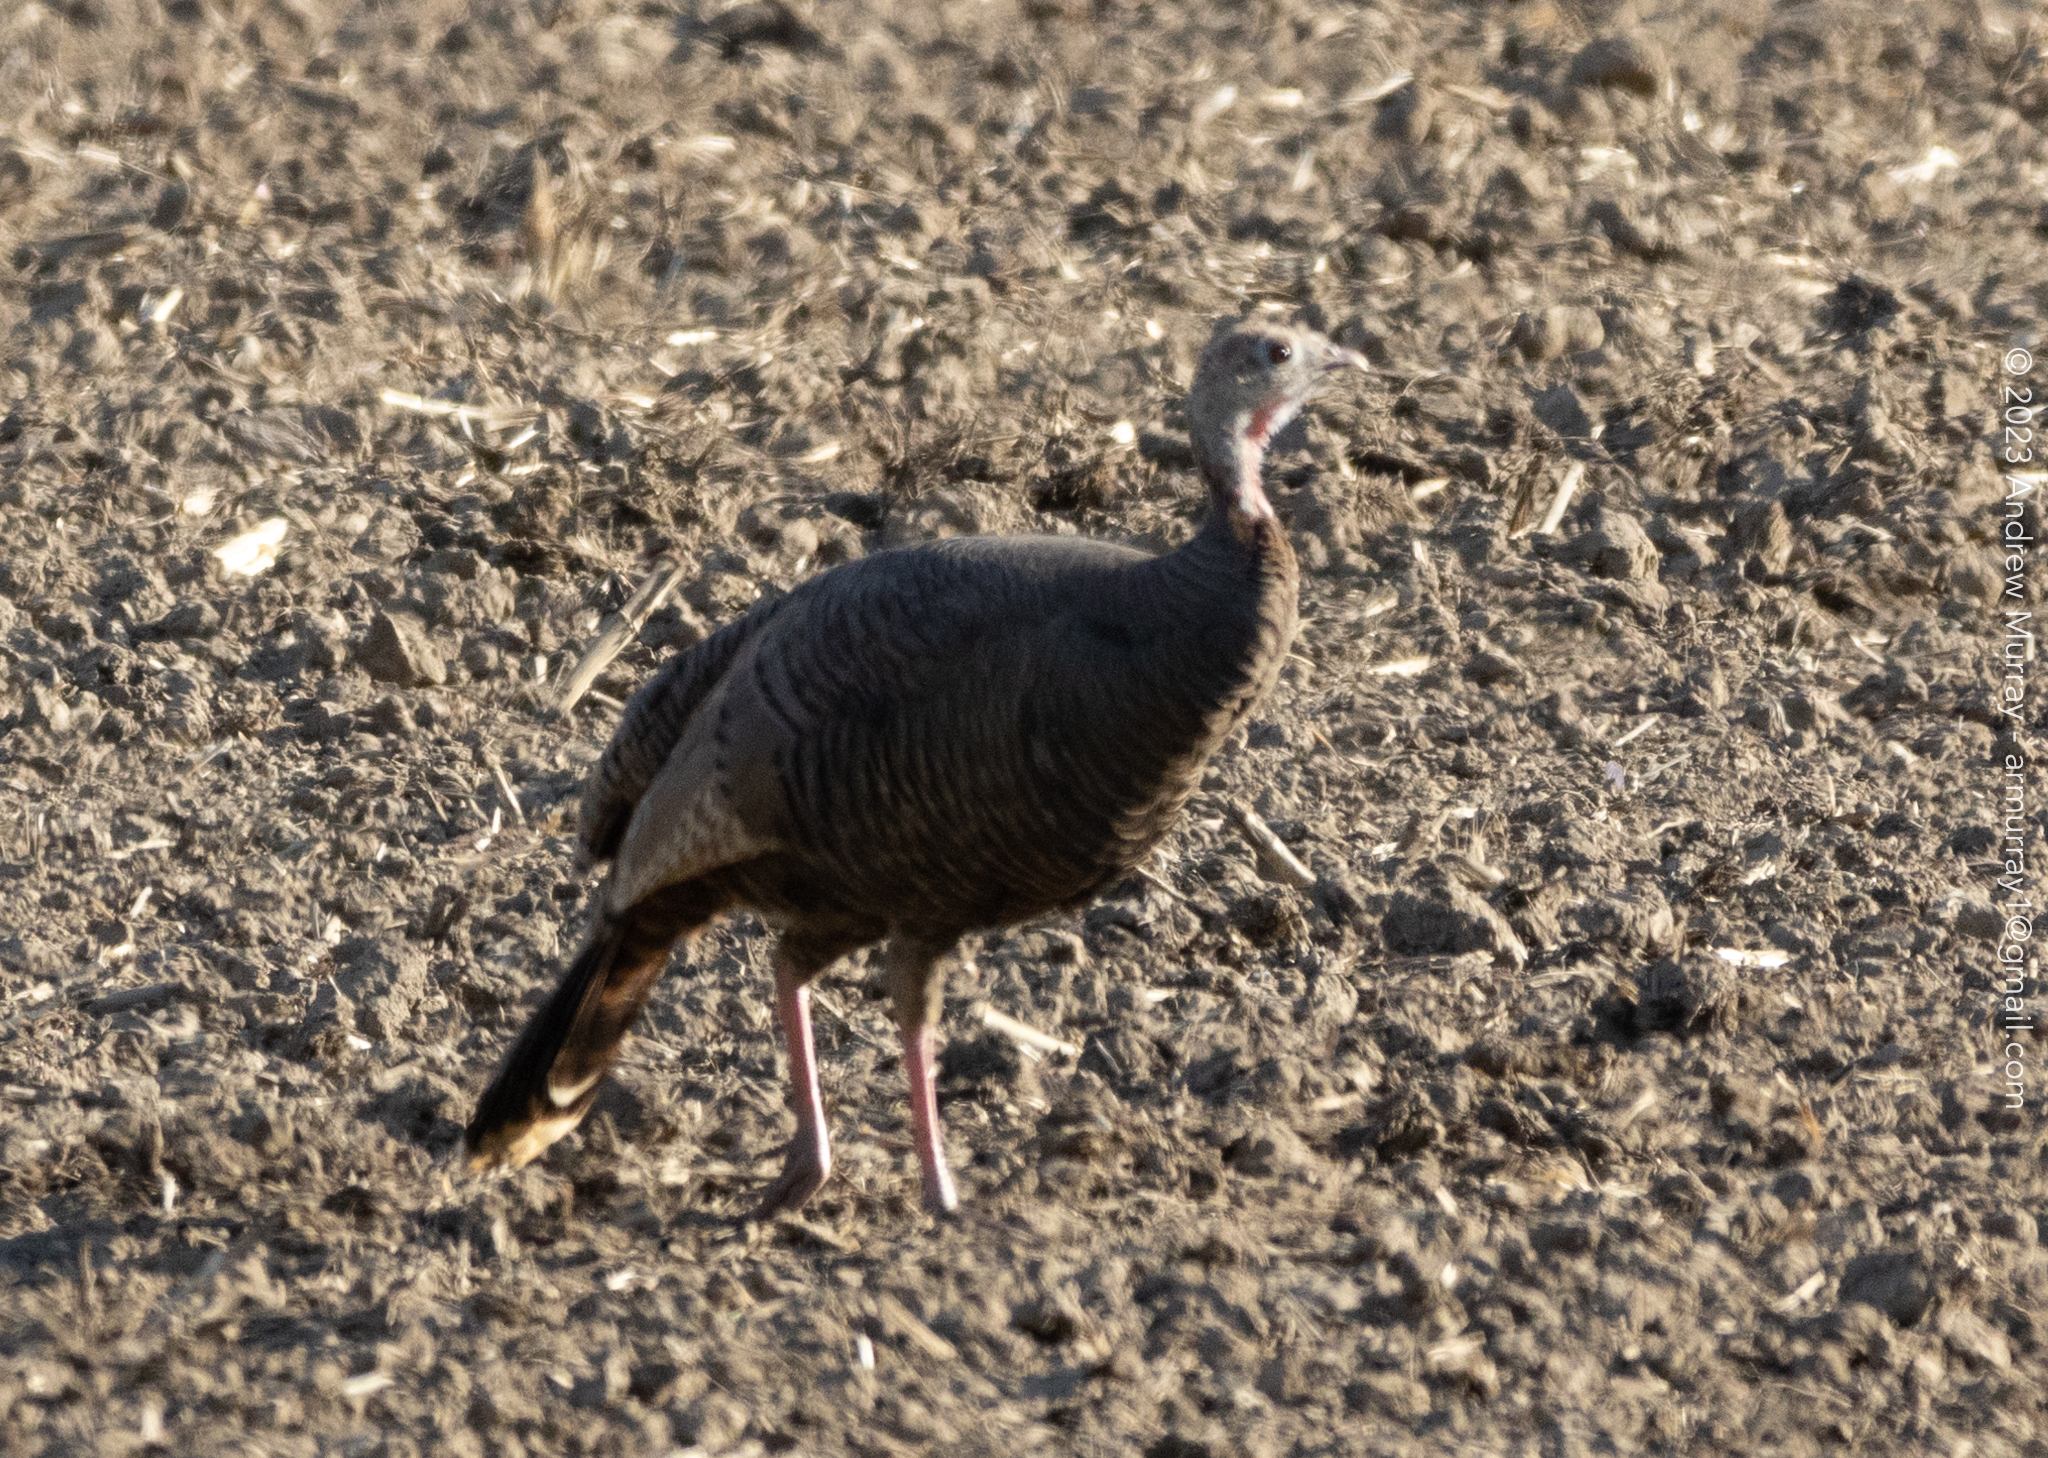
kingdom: Animalia
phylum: Chordata
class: Aves
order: Galliformes
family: Phasianidae
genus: Meleagris
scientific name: Meleagris gallopavo
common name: Wild turkey
